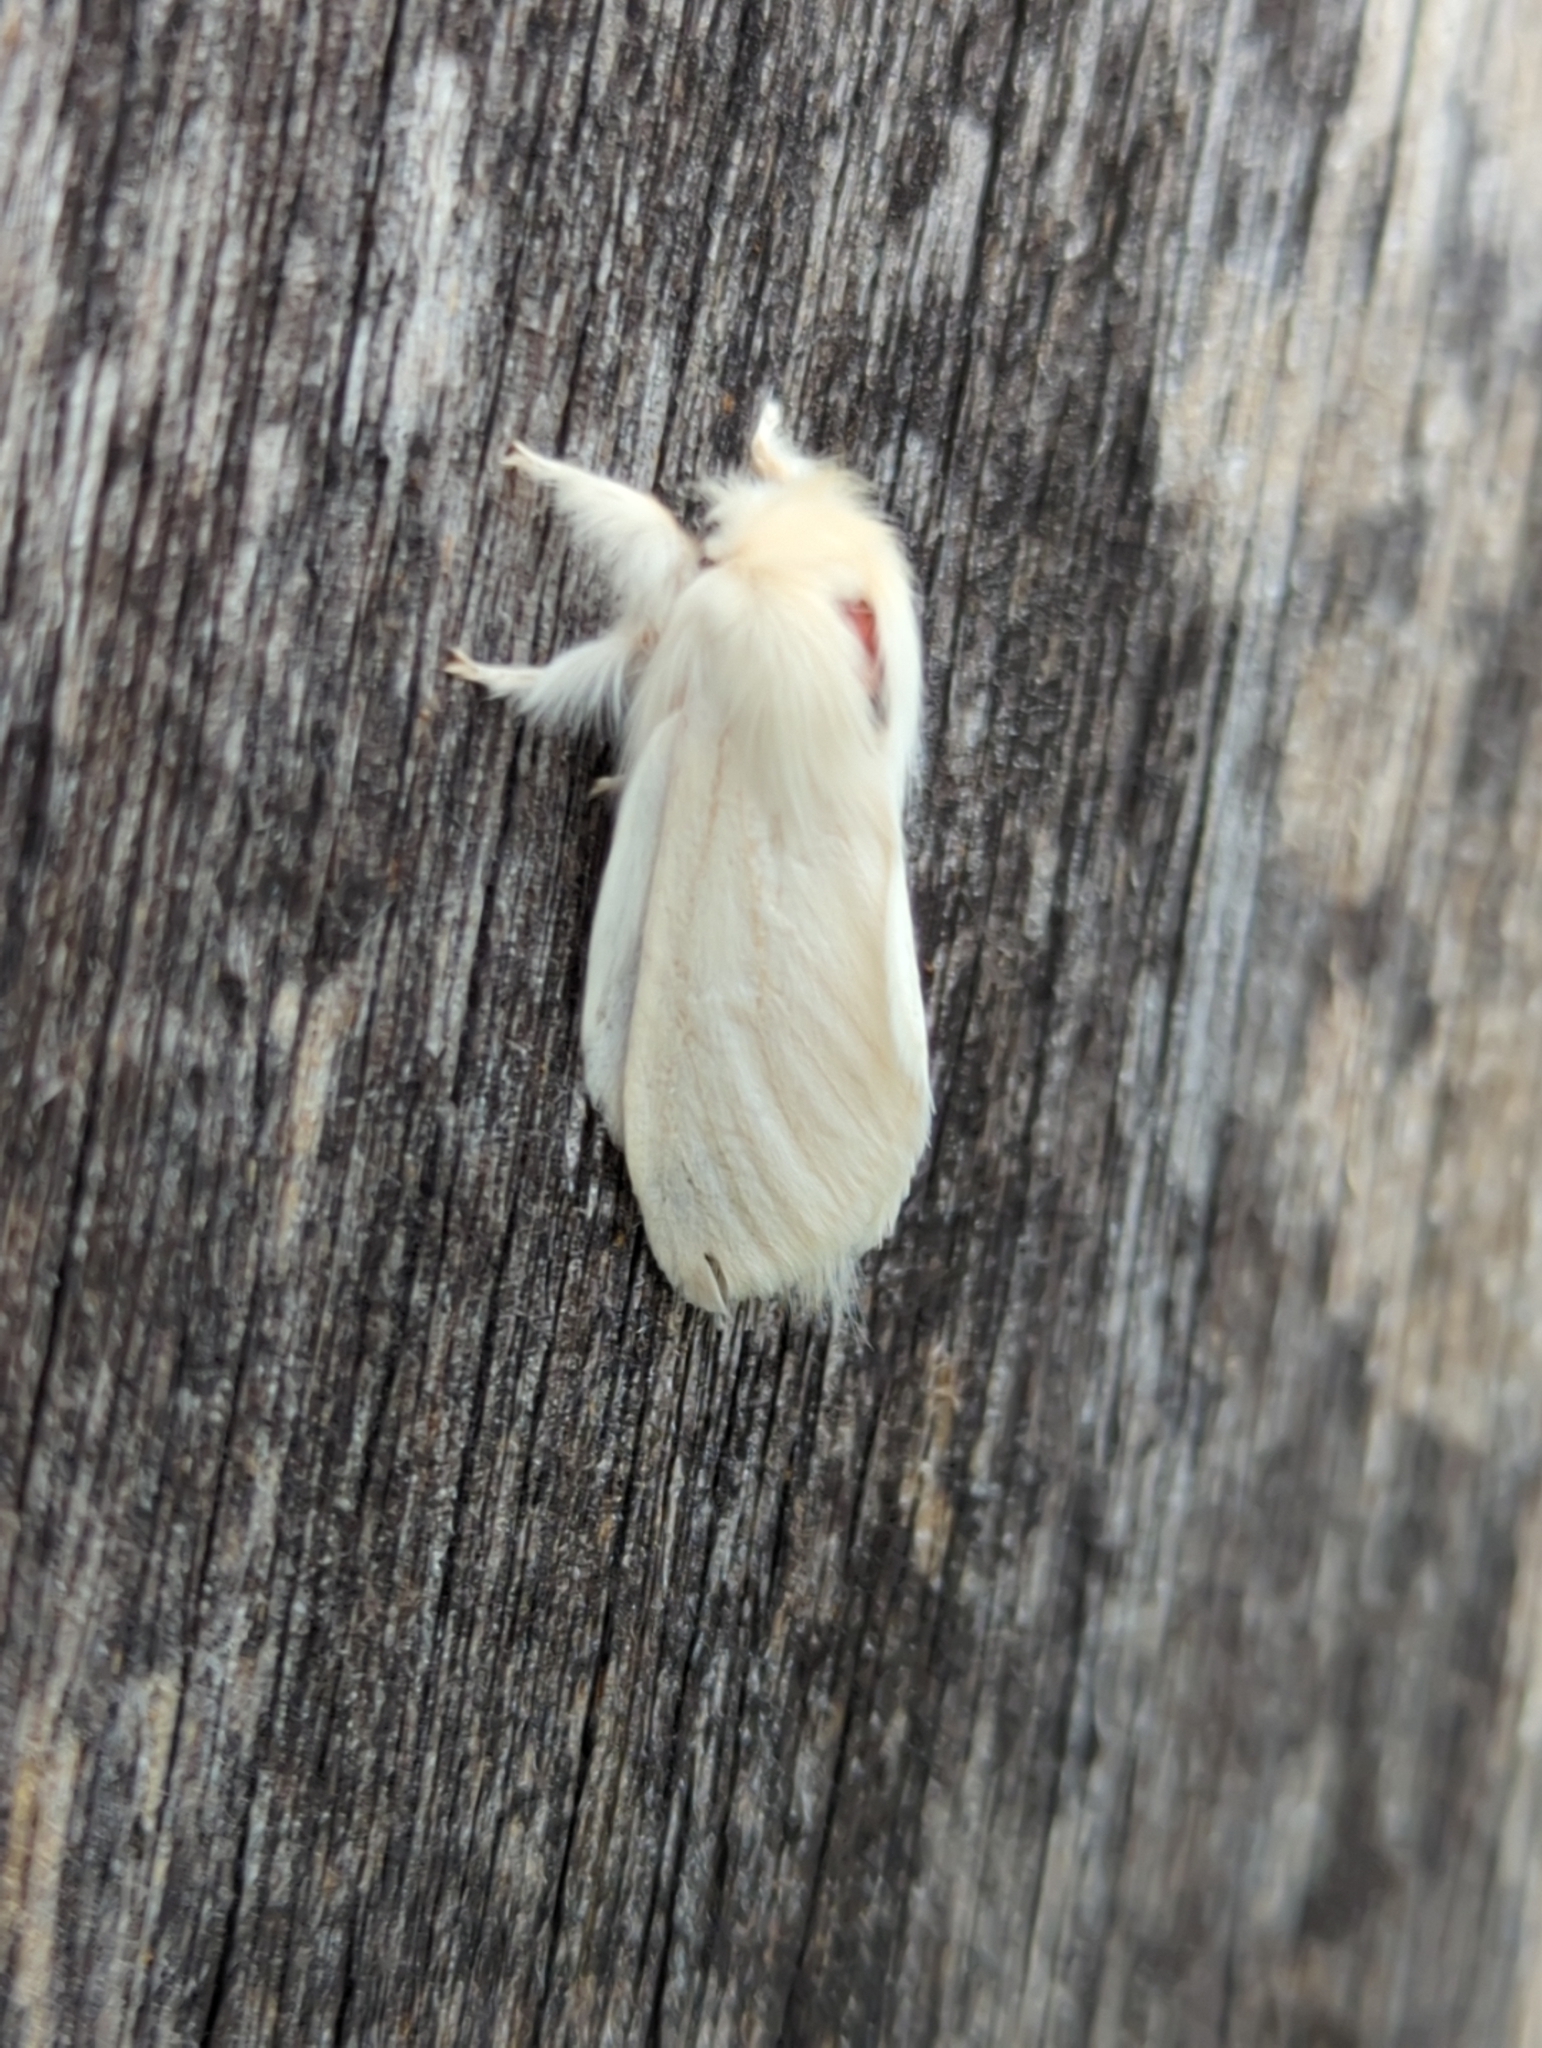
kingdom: Animalia
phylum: Arthropoda
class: Insecta
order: Lepidoptera
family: Notodontidae
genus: Trichiocercus
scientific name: Trichiocercus sparshalli
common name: Long-tailed satin
